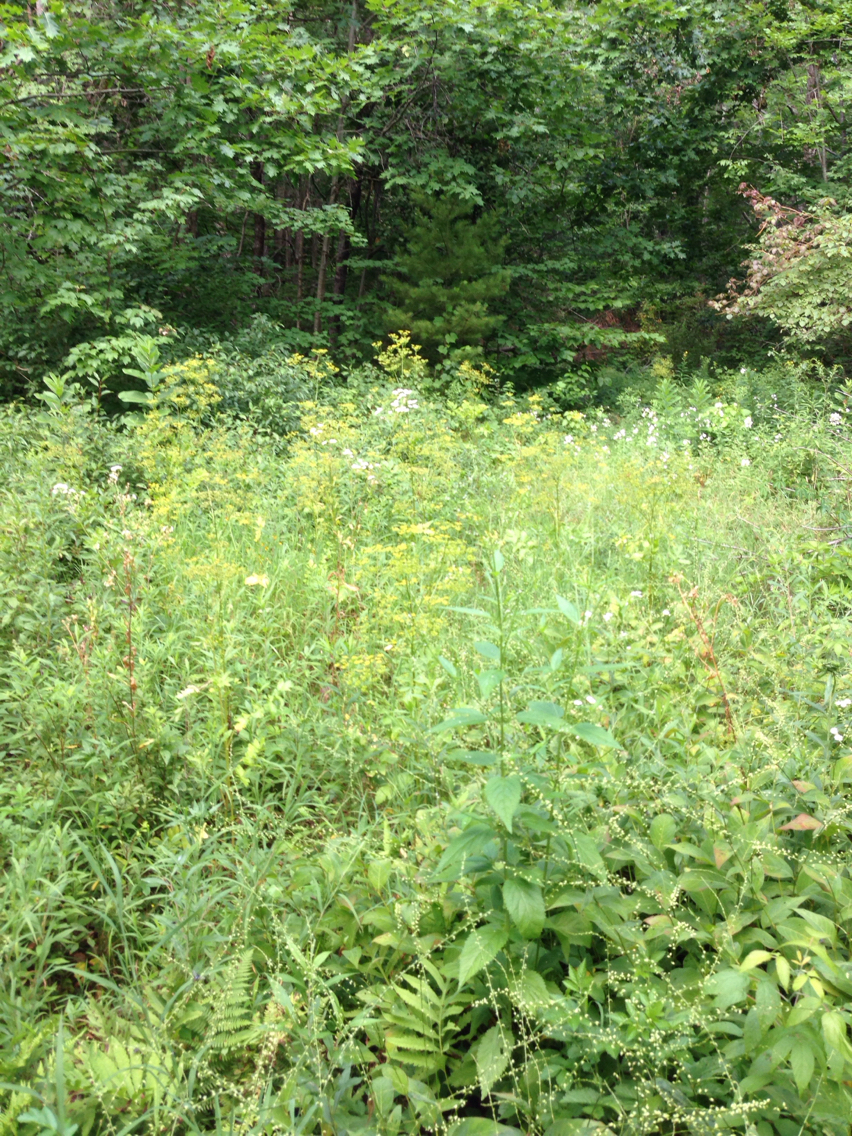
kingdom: Plantae
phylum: Tracheophyta
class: Magnoliopsida
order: Apiales
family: Apiaceae
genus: Pastinaca
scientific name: Pastinaca sativa
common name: Wild parsnip
